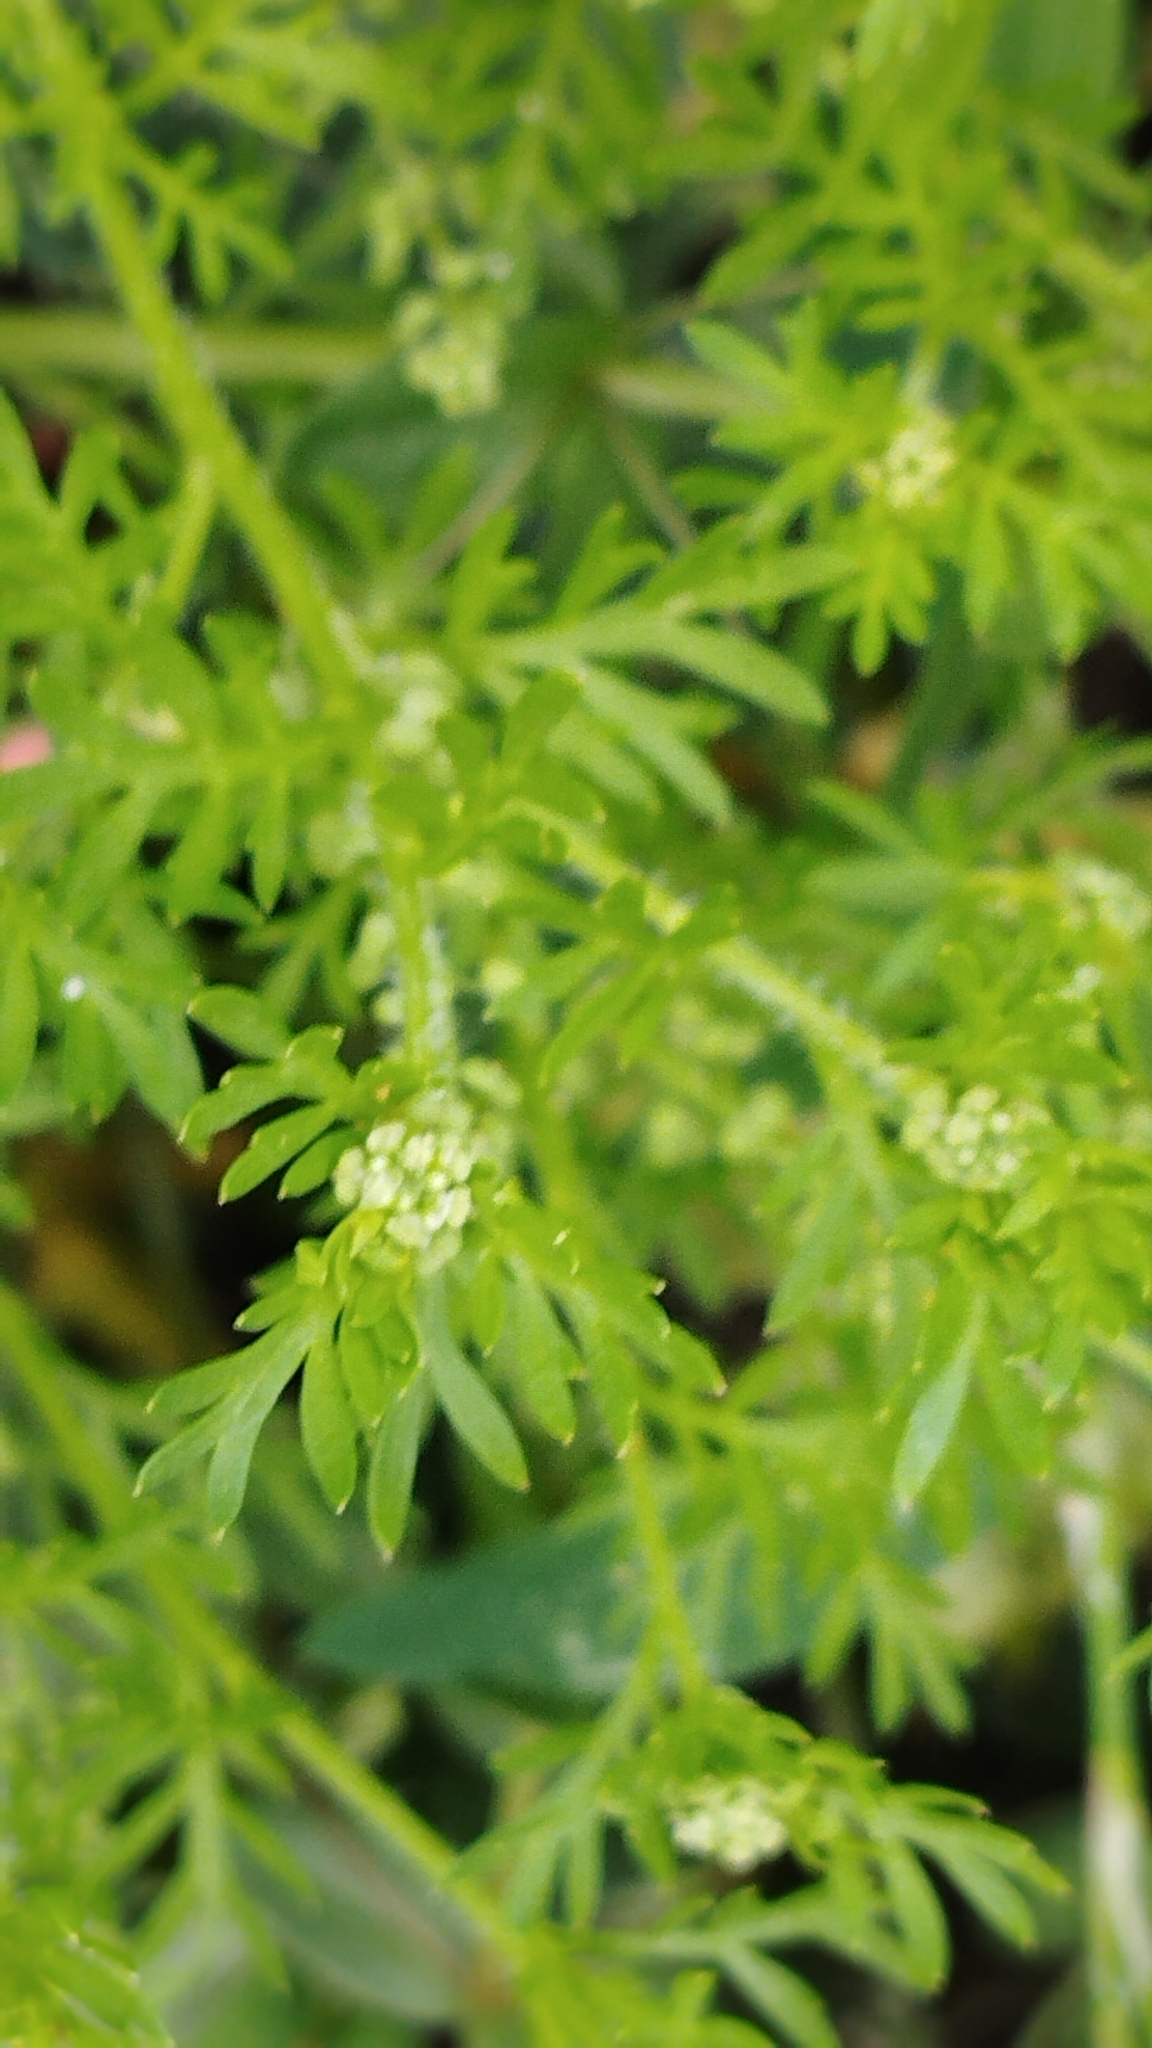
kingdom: Plantae
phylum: Tracheophyta
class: Magnoliopsida
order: Brassicales
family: Brassicaceae
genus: Lepidium
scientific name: Lepidium didymum
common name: Lesser swinecress
